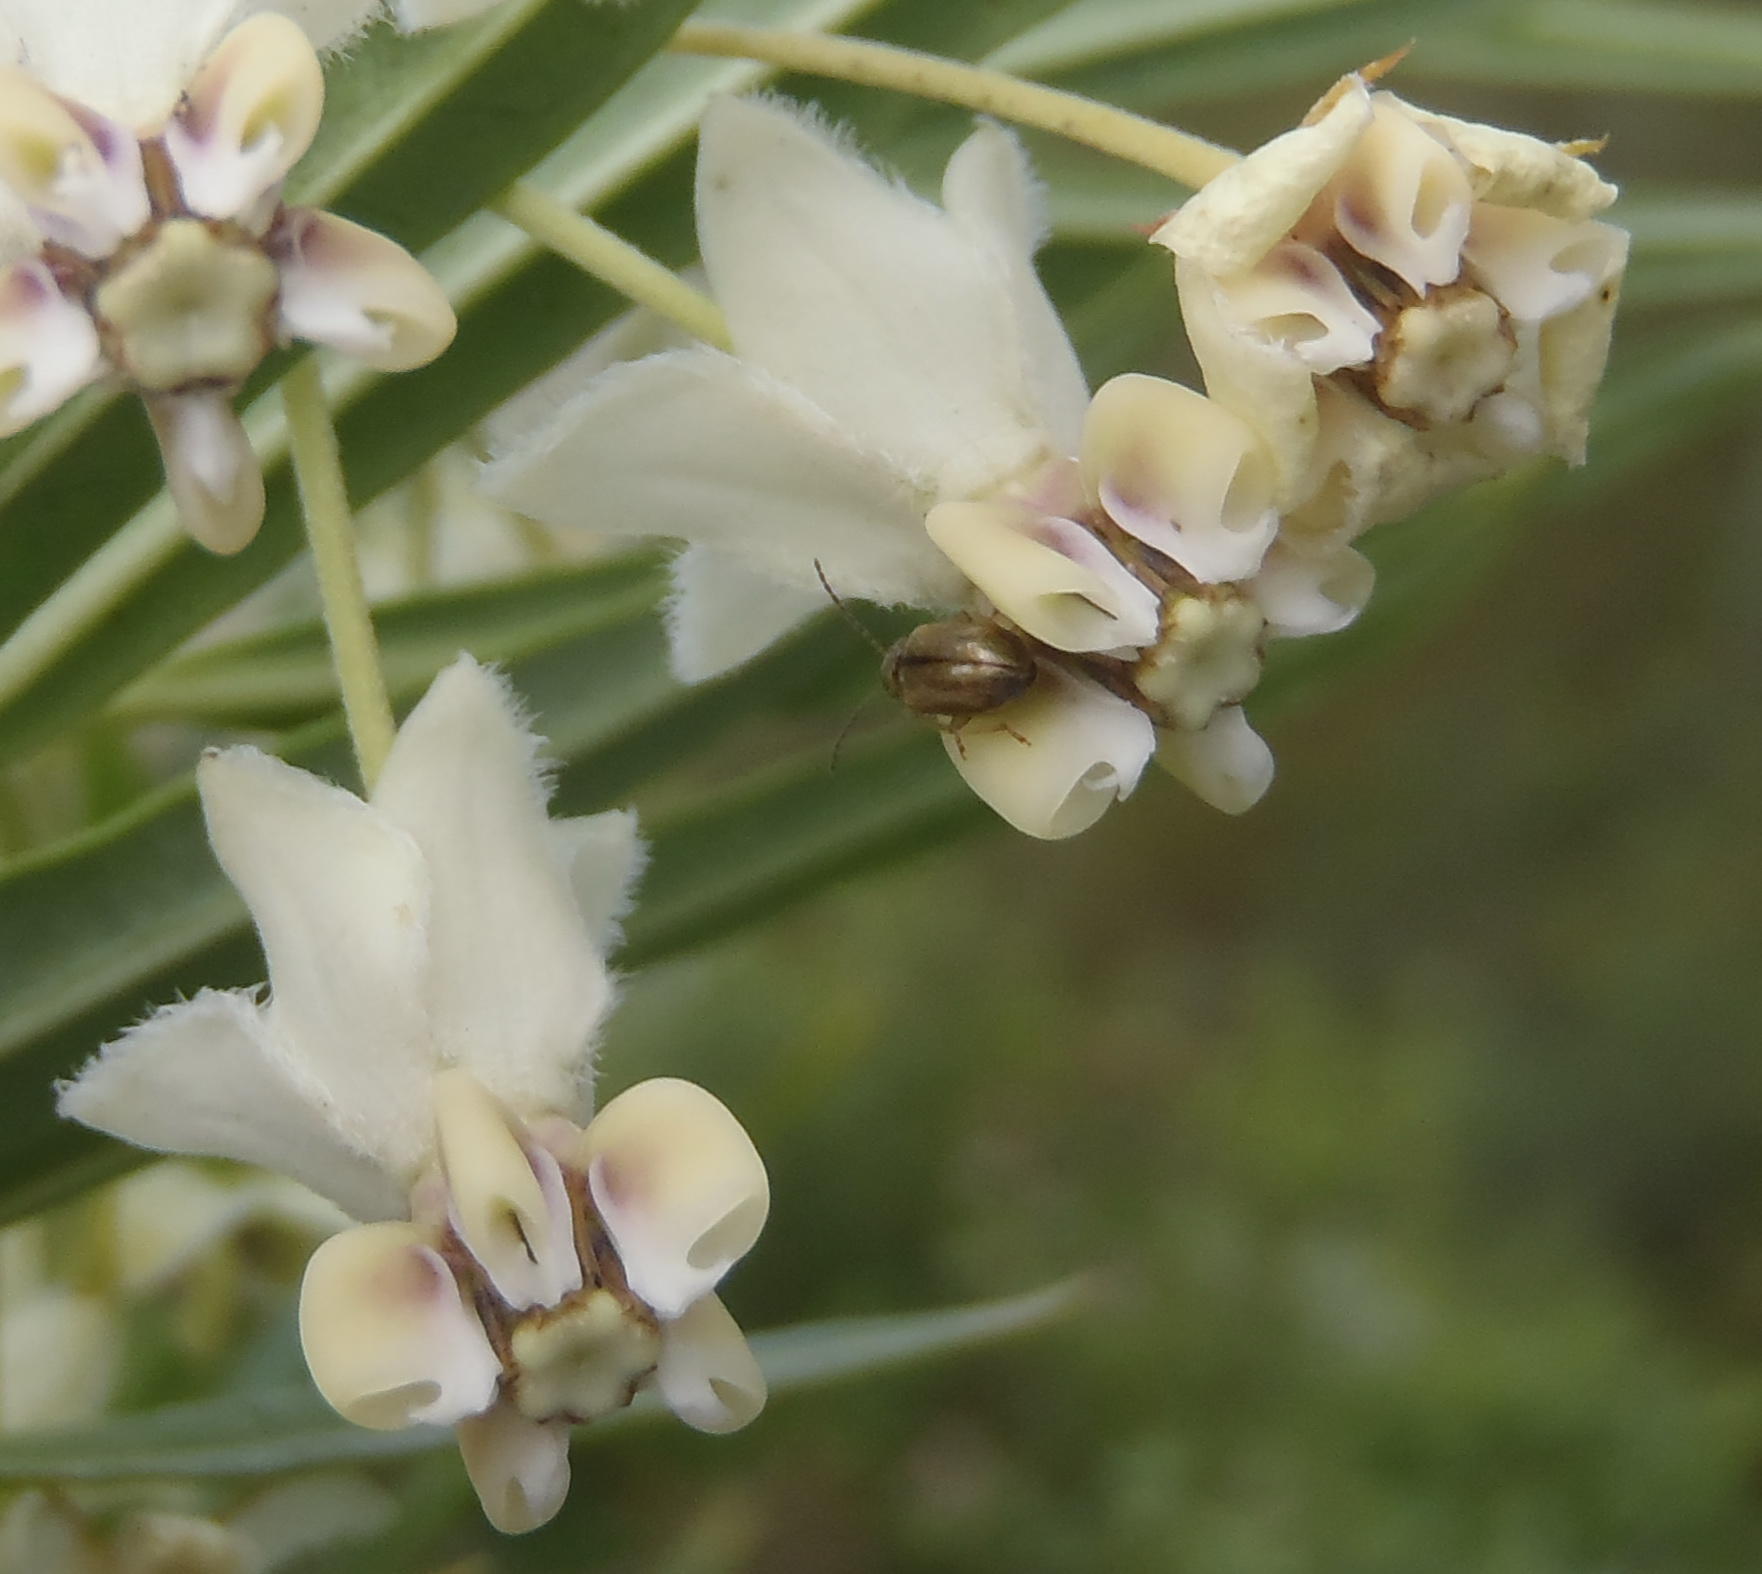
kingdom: Plantae
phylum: Tracheophyta
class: Magnoliopsida
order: Gentianales
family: Apocynaceae
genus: Gomphocarpus
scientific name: Gomphocarpus fruticosus
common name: Milkweed
